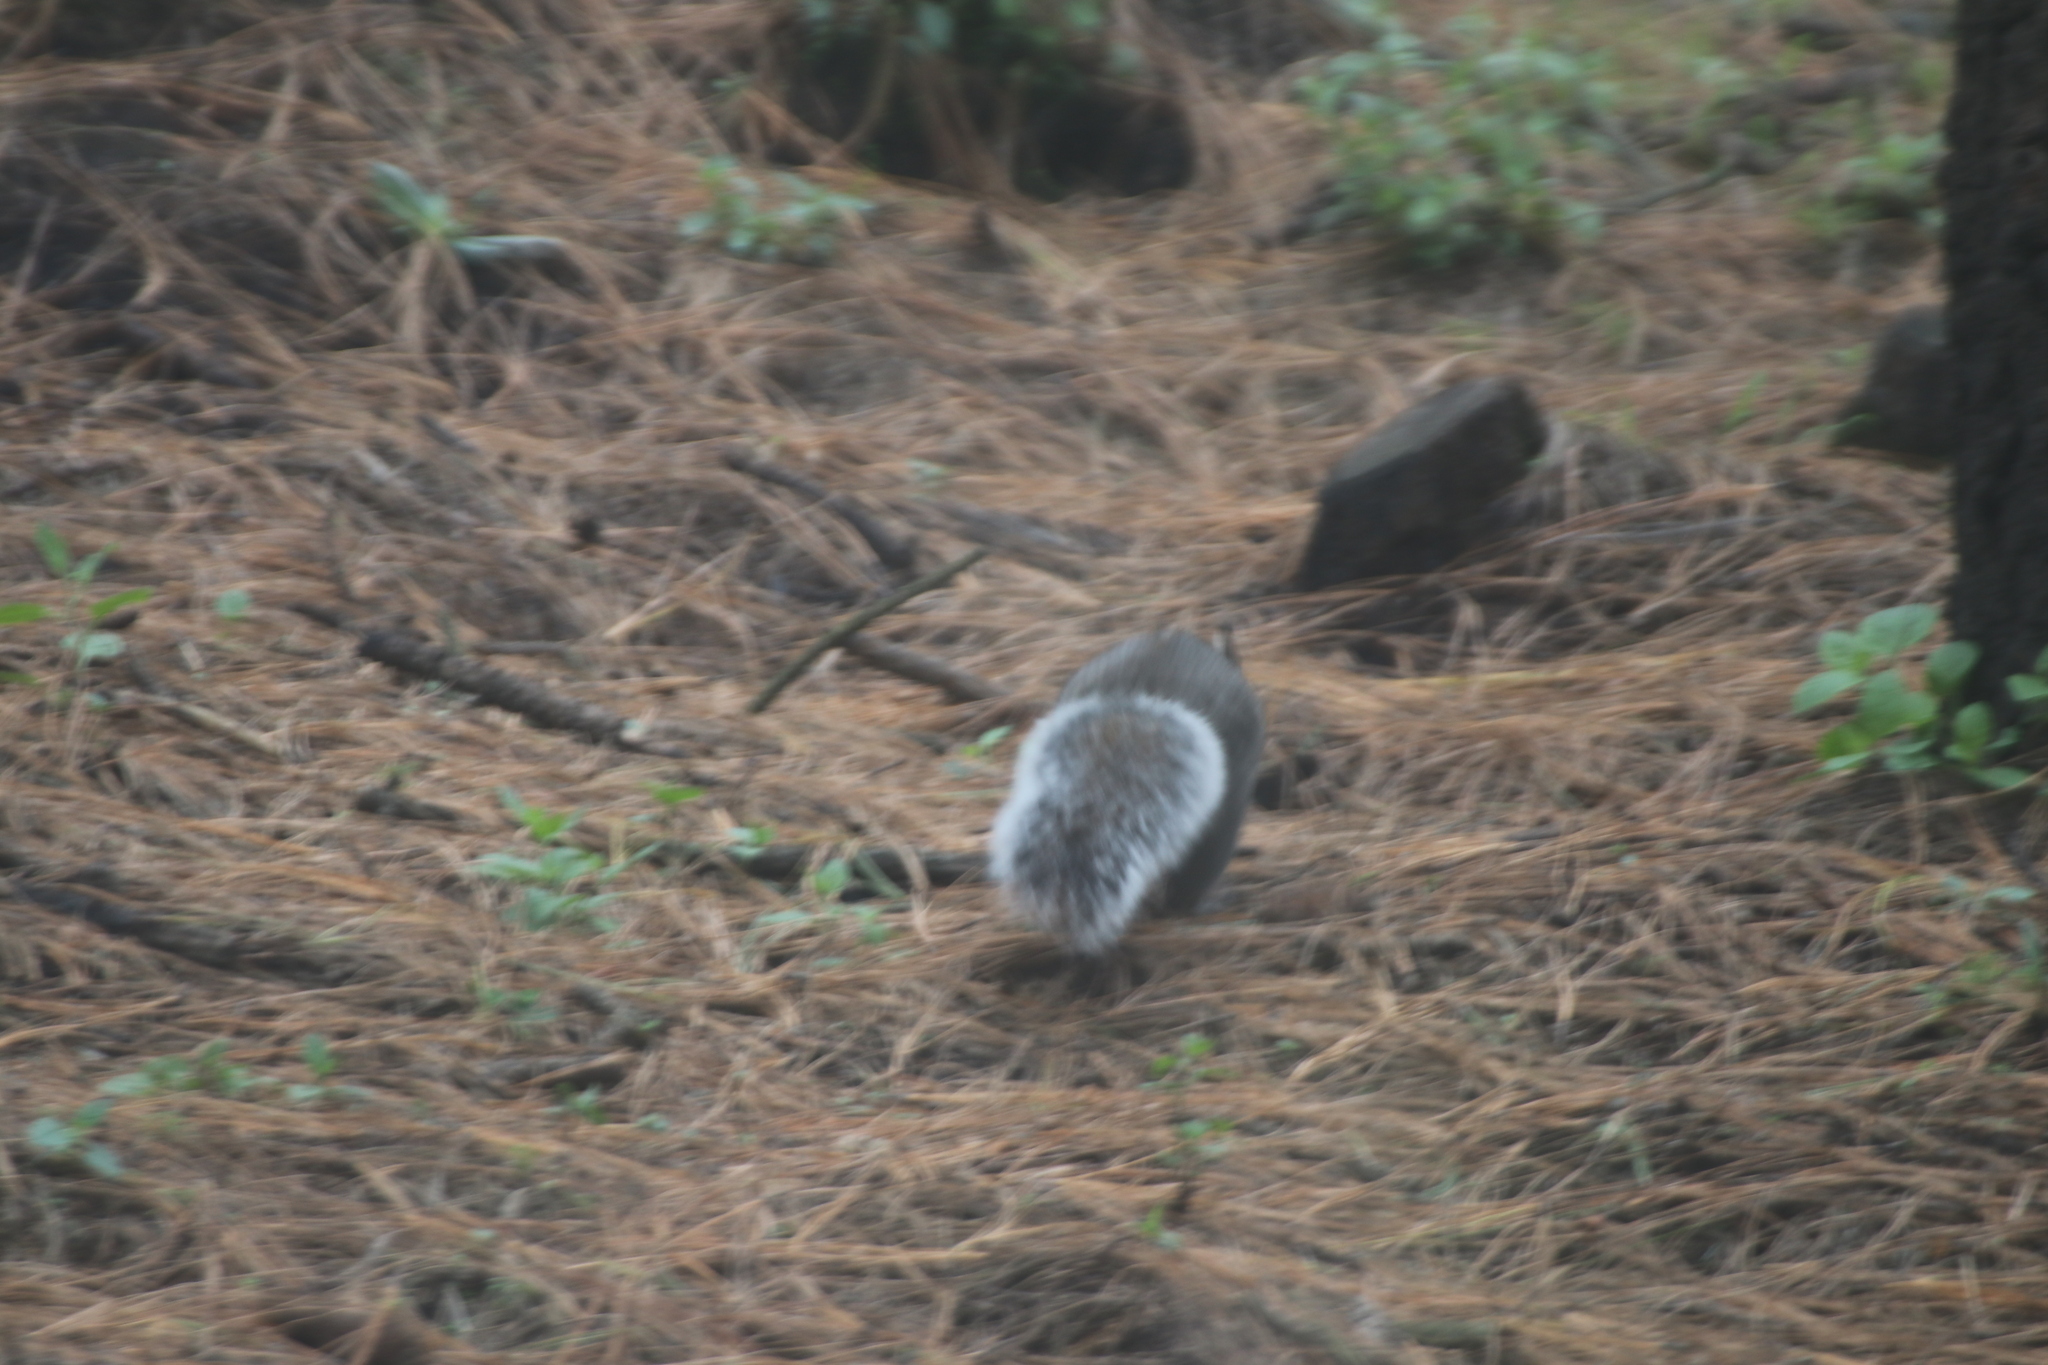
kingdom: Animalia
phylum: Chordata
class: Mammalia
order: Rodentia
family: Sciuridae
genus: Sciurus
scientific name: Sciurus oculatus
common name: Peters's squirrel
